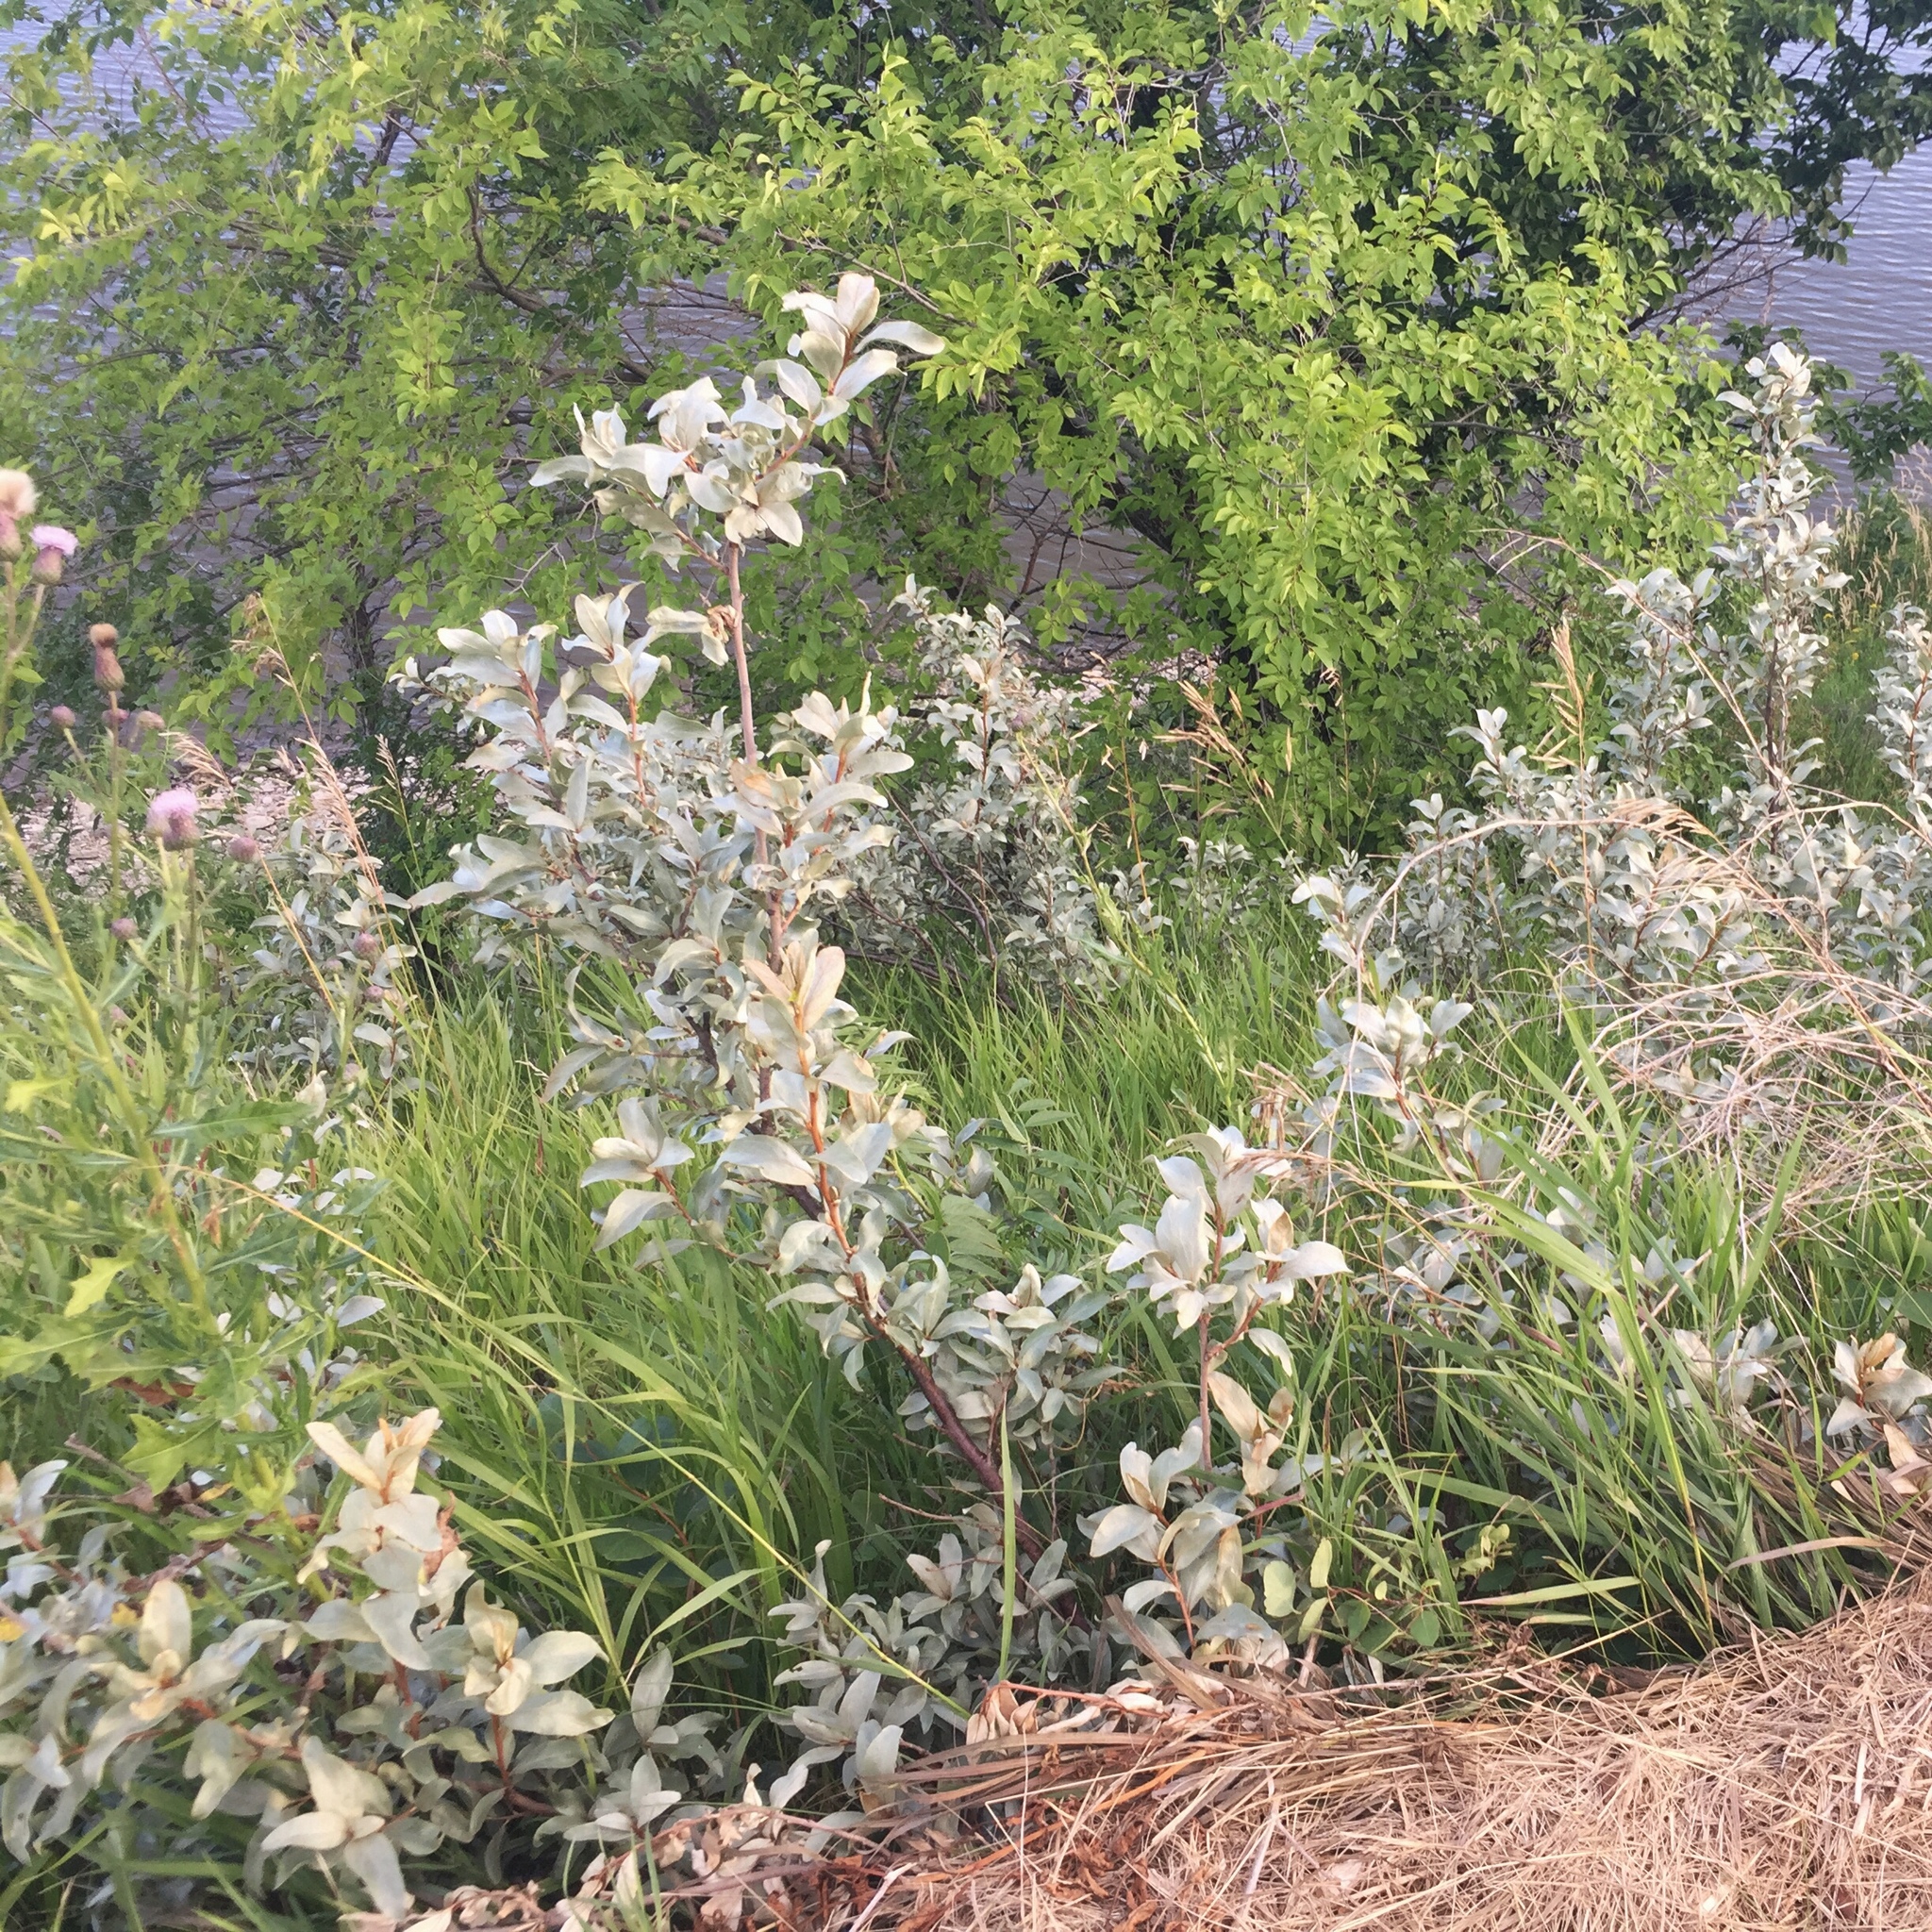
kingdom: Plantae
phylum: Tracheophyta
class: Magnoliopsida
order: Rosales
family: Elaeagnaceae
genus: Elaeagnus
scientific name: Elaeagnus commutata
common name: Silverberry
